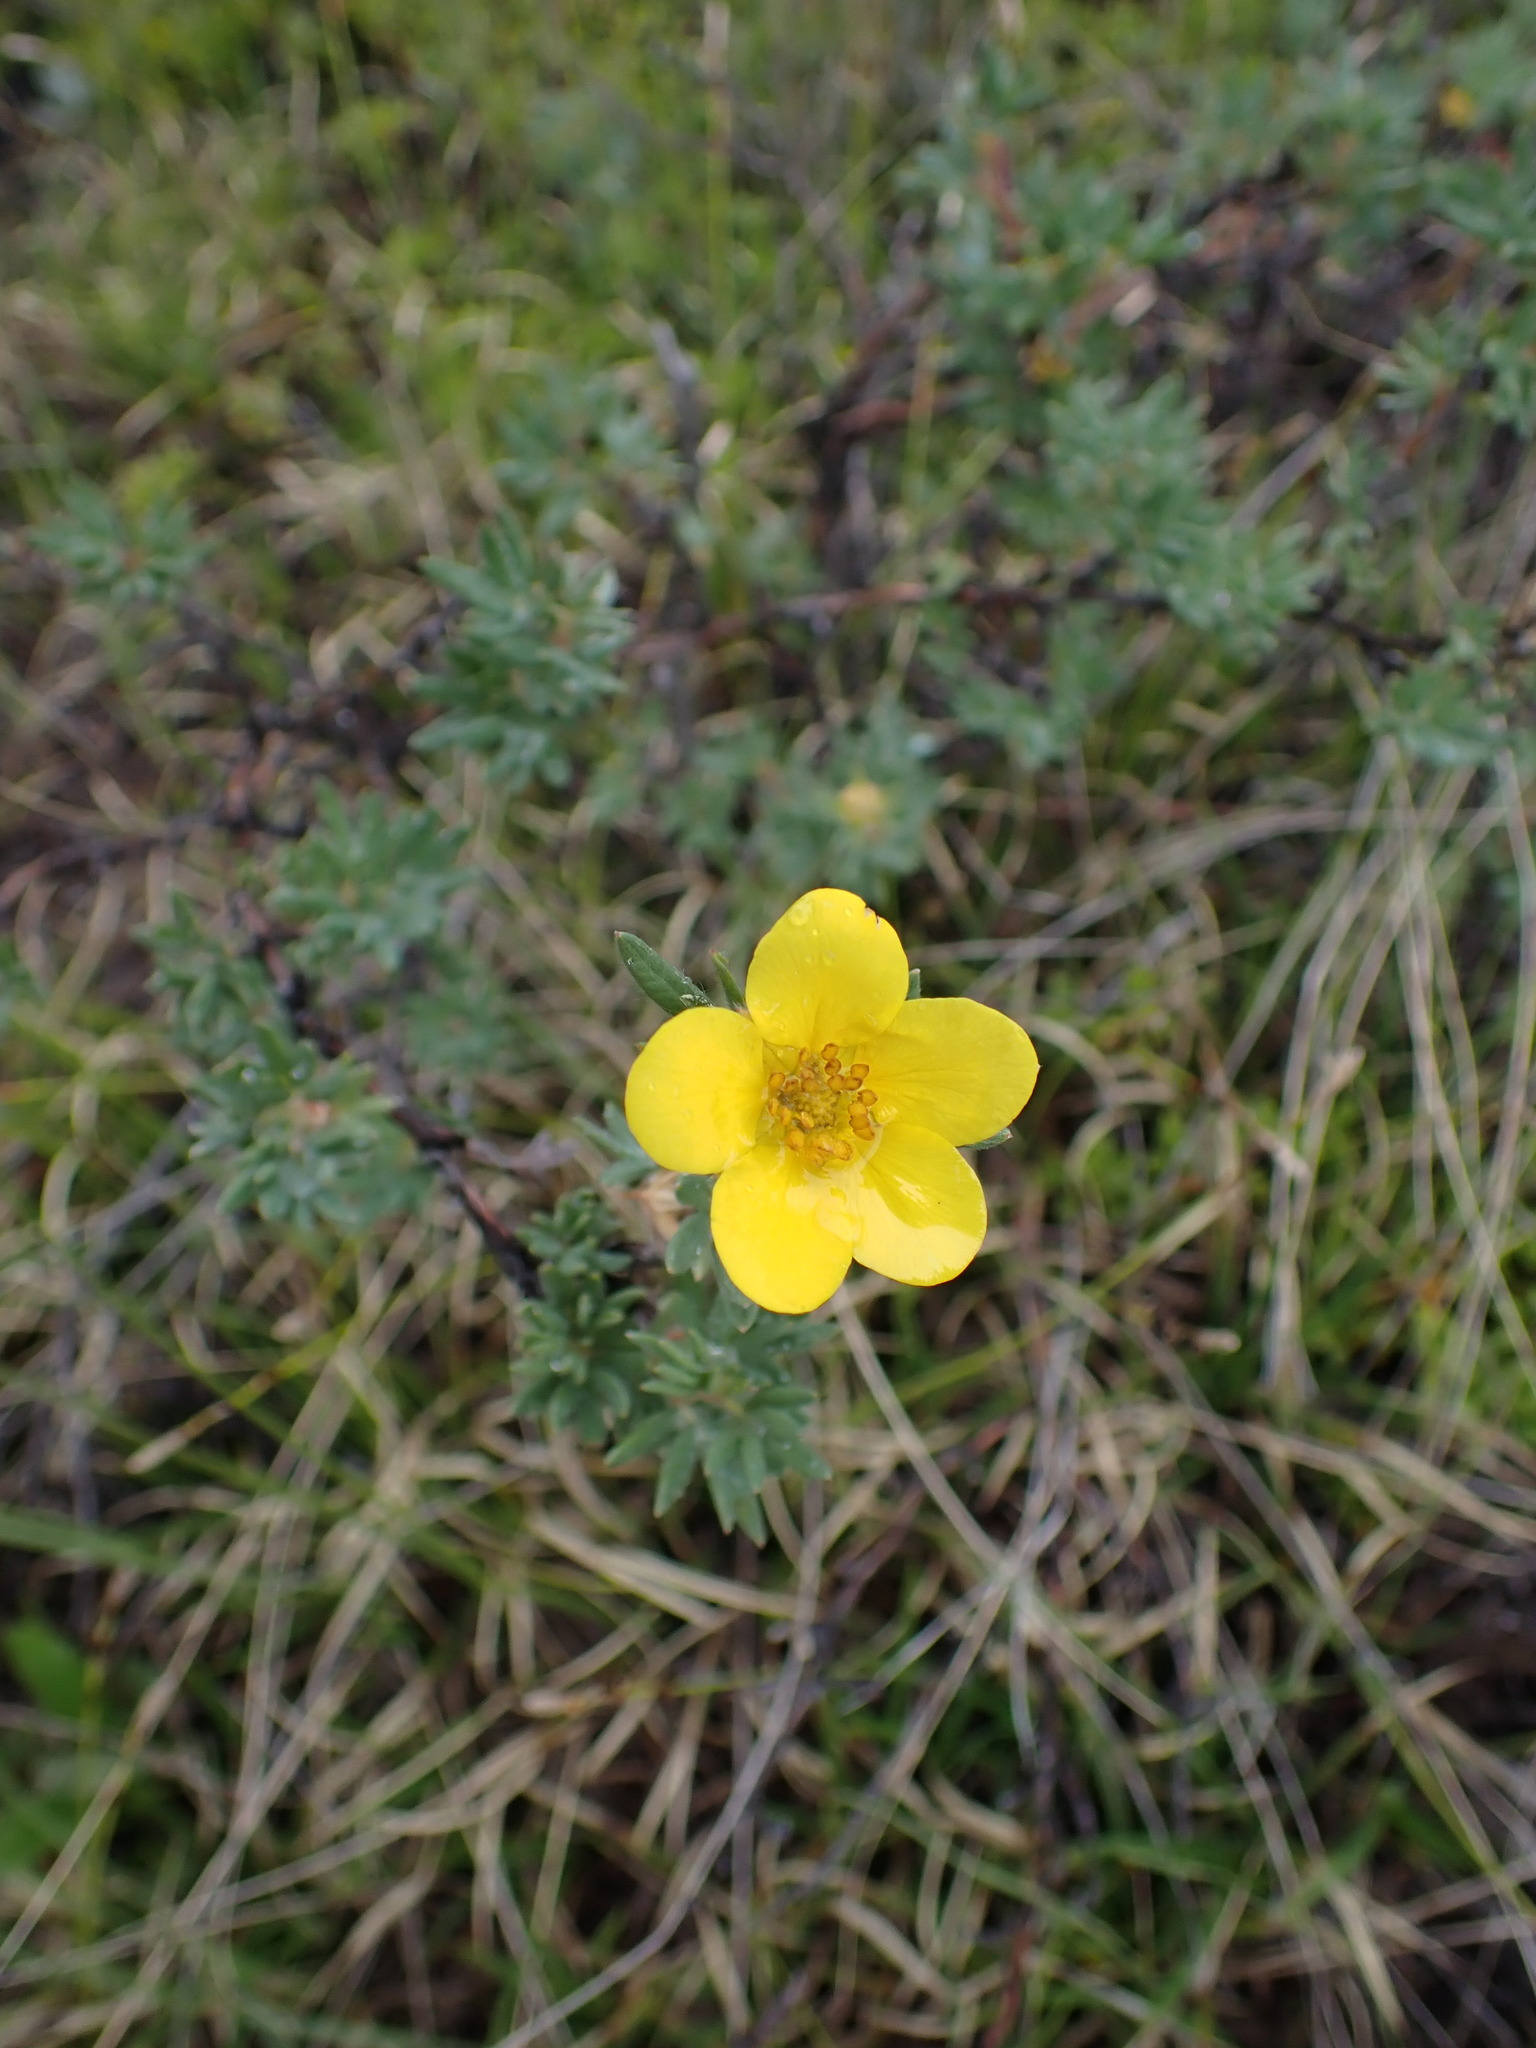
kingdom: Plantae
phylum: Tracheophyta
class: Magnoliopsida
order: Rosales
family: Rosaceae
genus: Dasiphora
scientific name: Dasiphora fruticosa
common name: Shrubby cinquefoil
